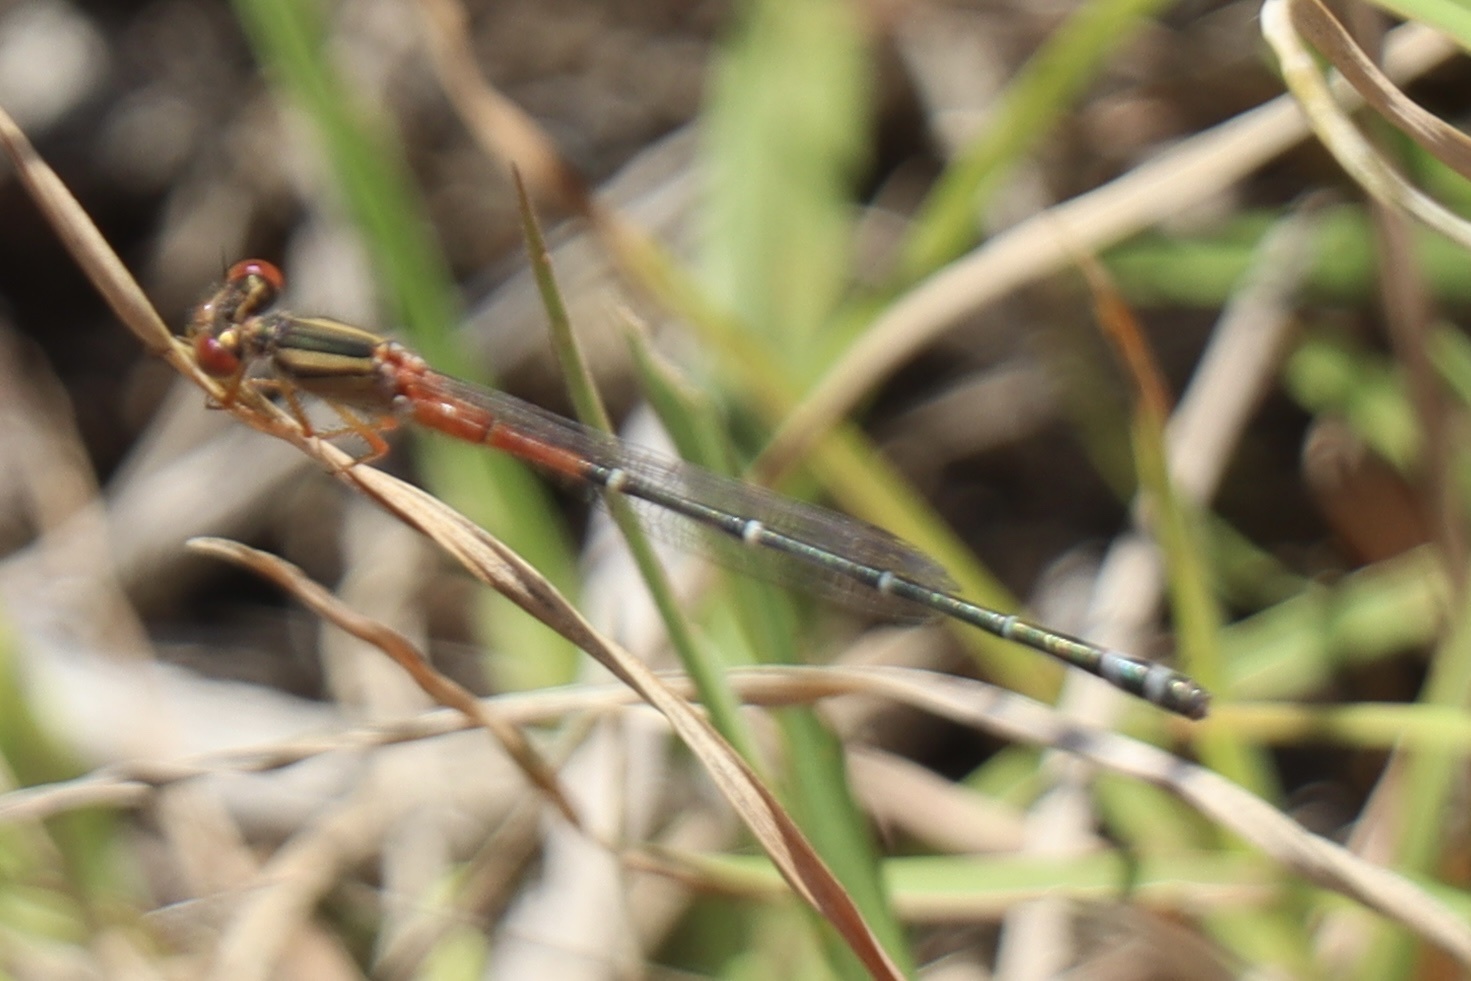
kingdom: Animalia
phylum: Arthropoda
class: Insecta
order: Odonata
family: Coenagrionidae
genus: Xanthagrion
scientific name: Xanthagrion erythroneurum
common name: Red and blue damsel
